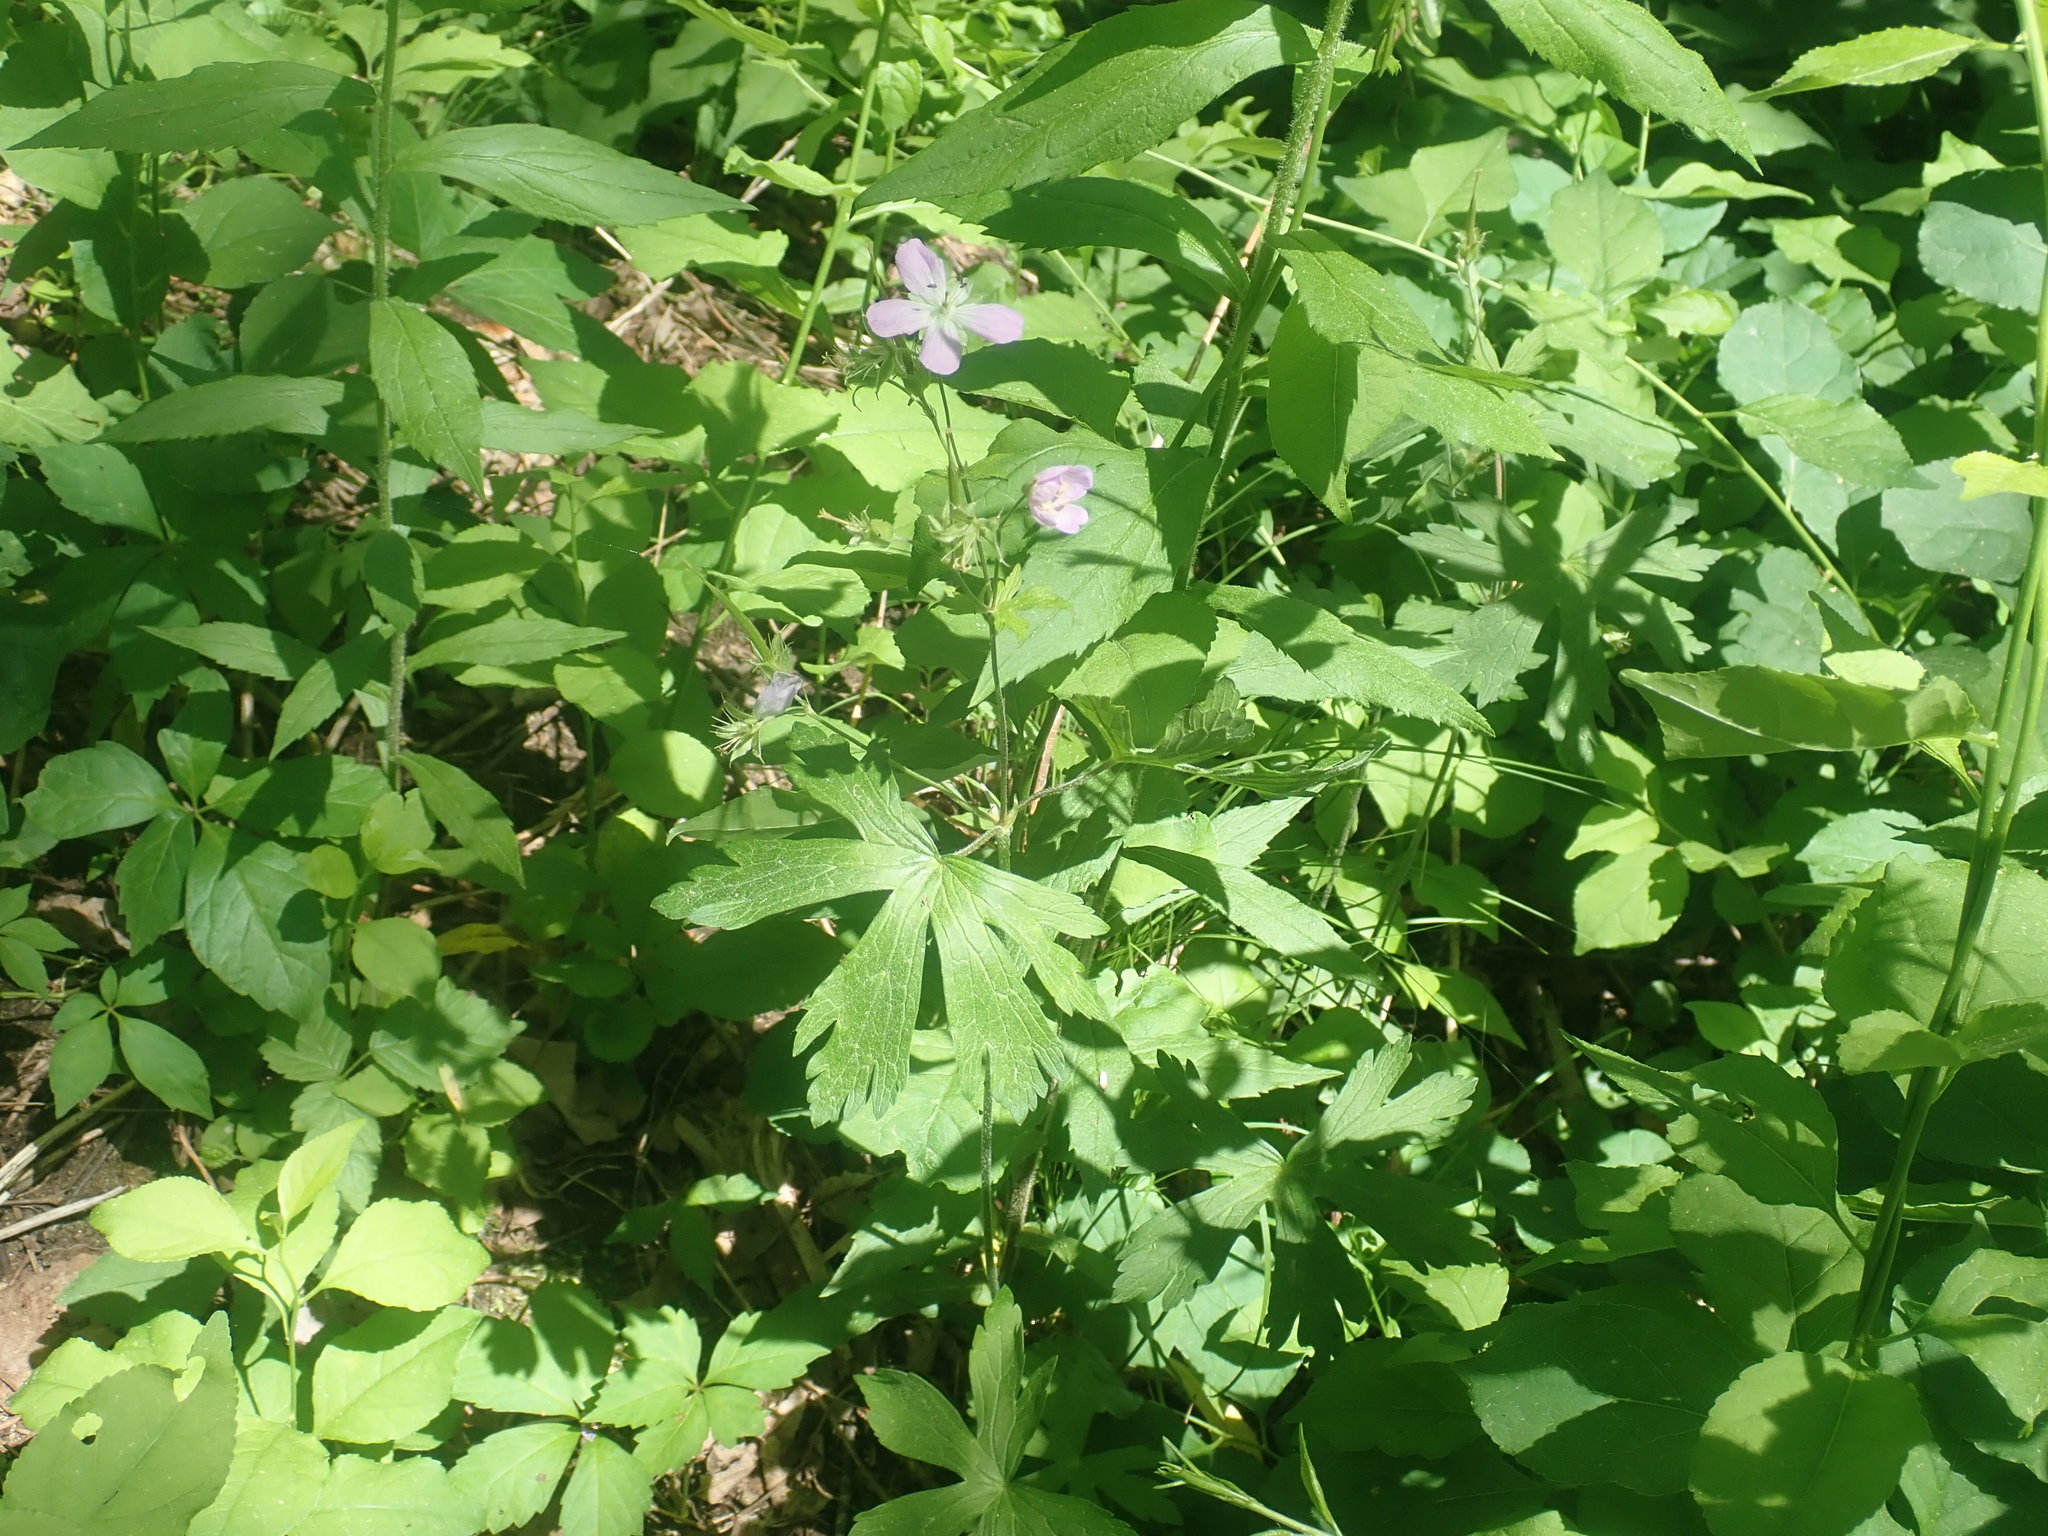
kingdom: Plantae
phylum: Tracheophyta
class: Magnoliopsida
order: Geraniales
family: Geraniaceae
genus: Geranium
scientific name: Geranium maculatum
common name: Spotted geranium
